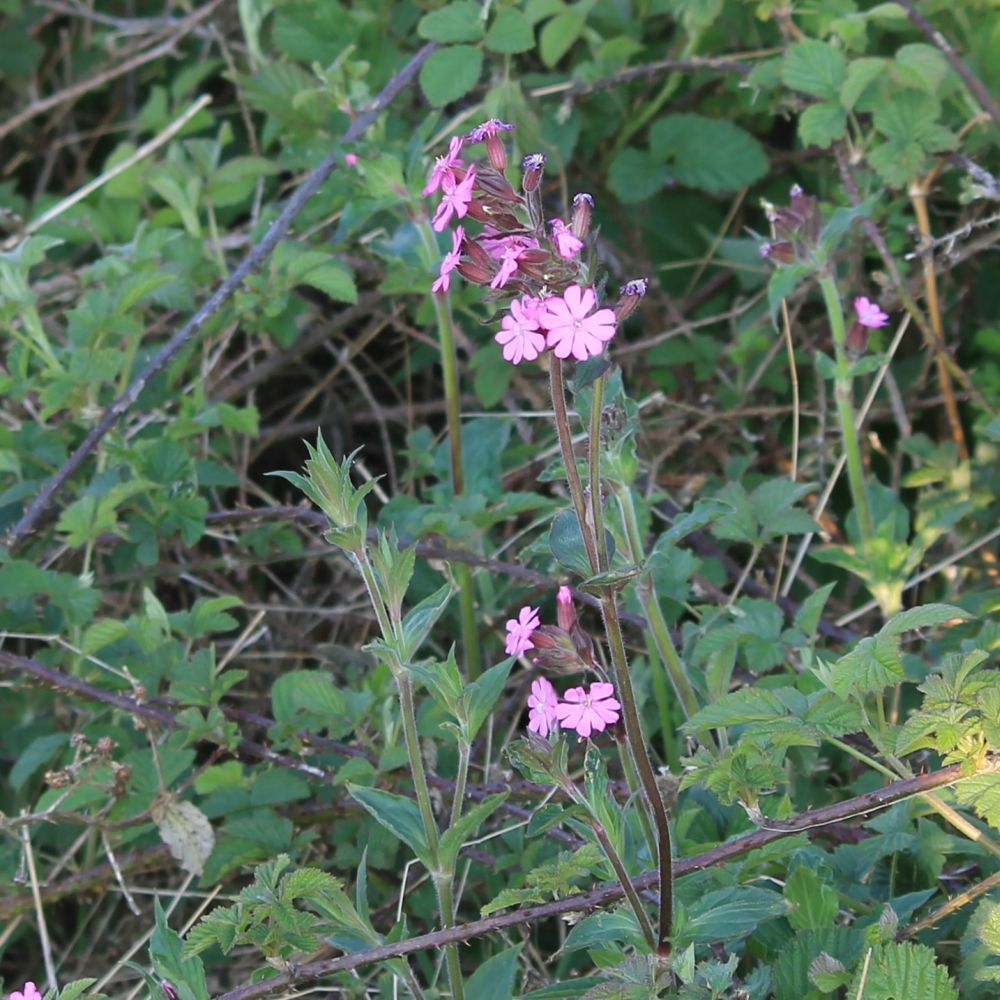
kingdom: Plantae
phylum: Tracheophyta
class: Magnoliopsida
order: Caryophyllales
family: Caryophyllaceae
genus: Silene
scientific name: Silene dioica
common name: Red campion
